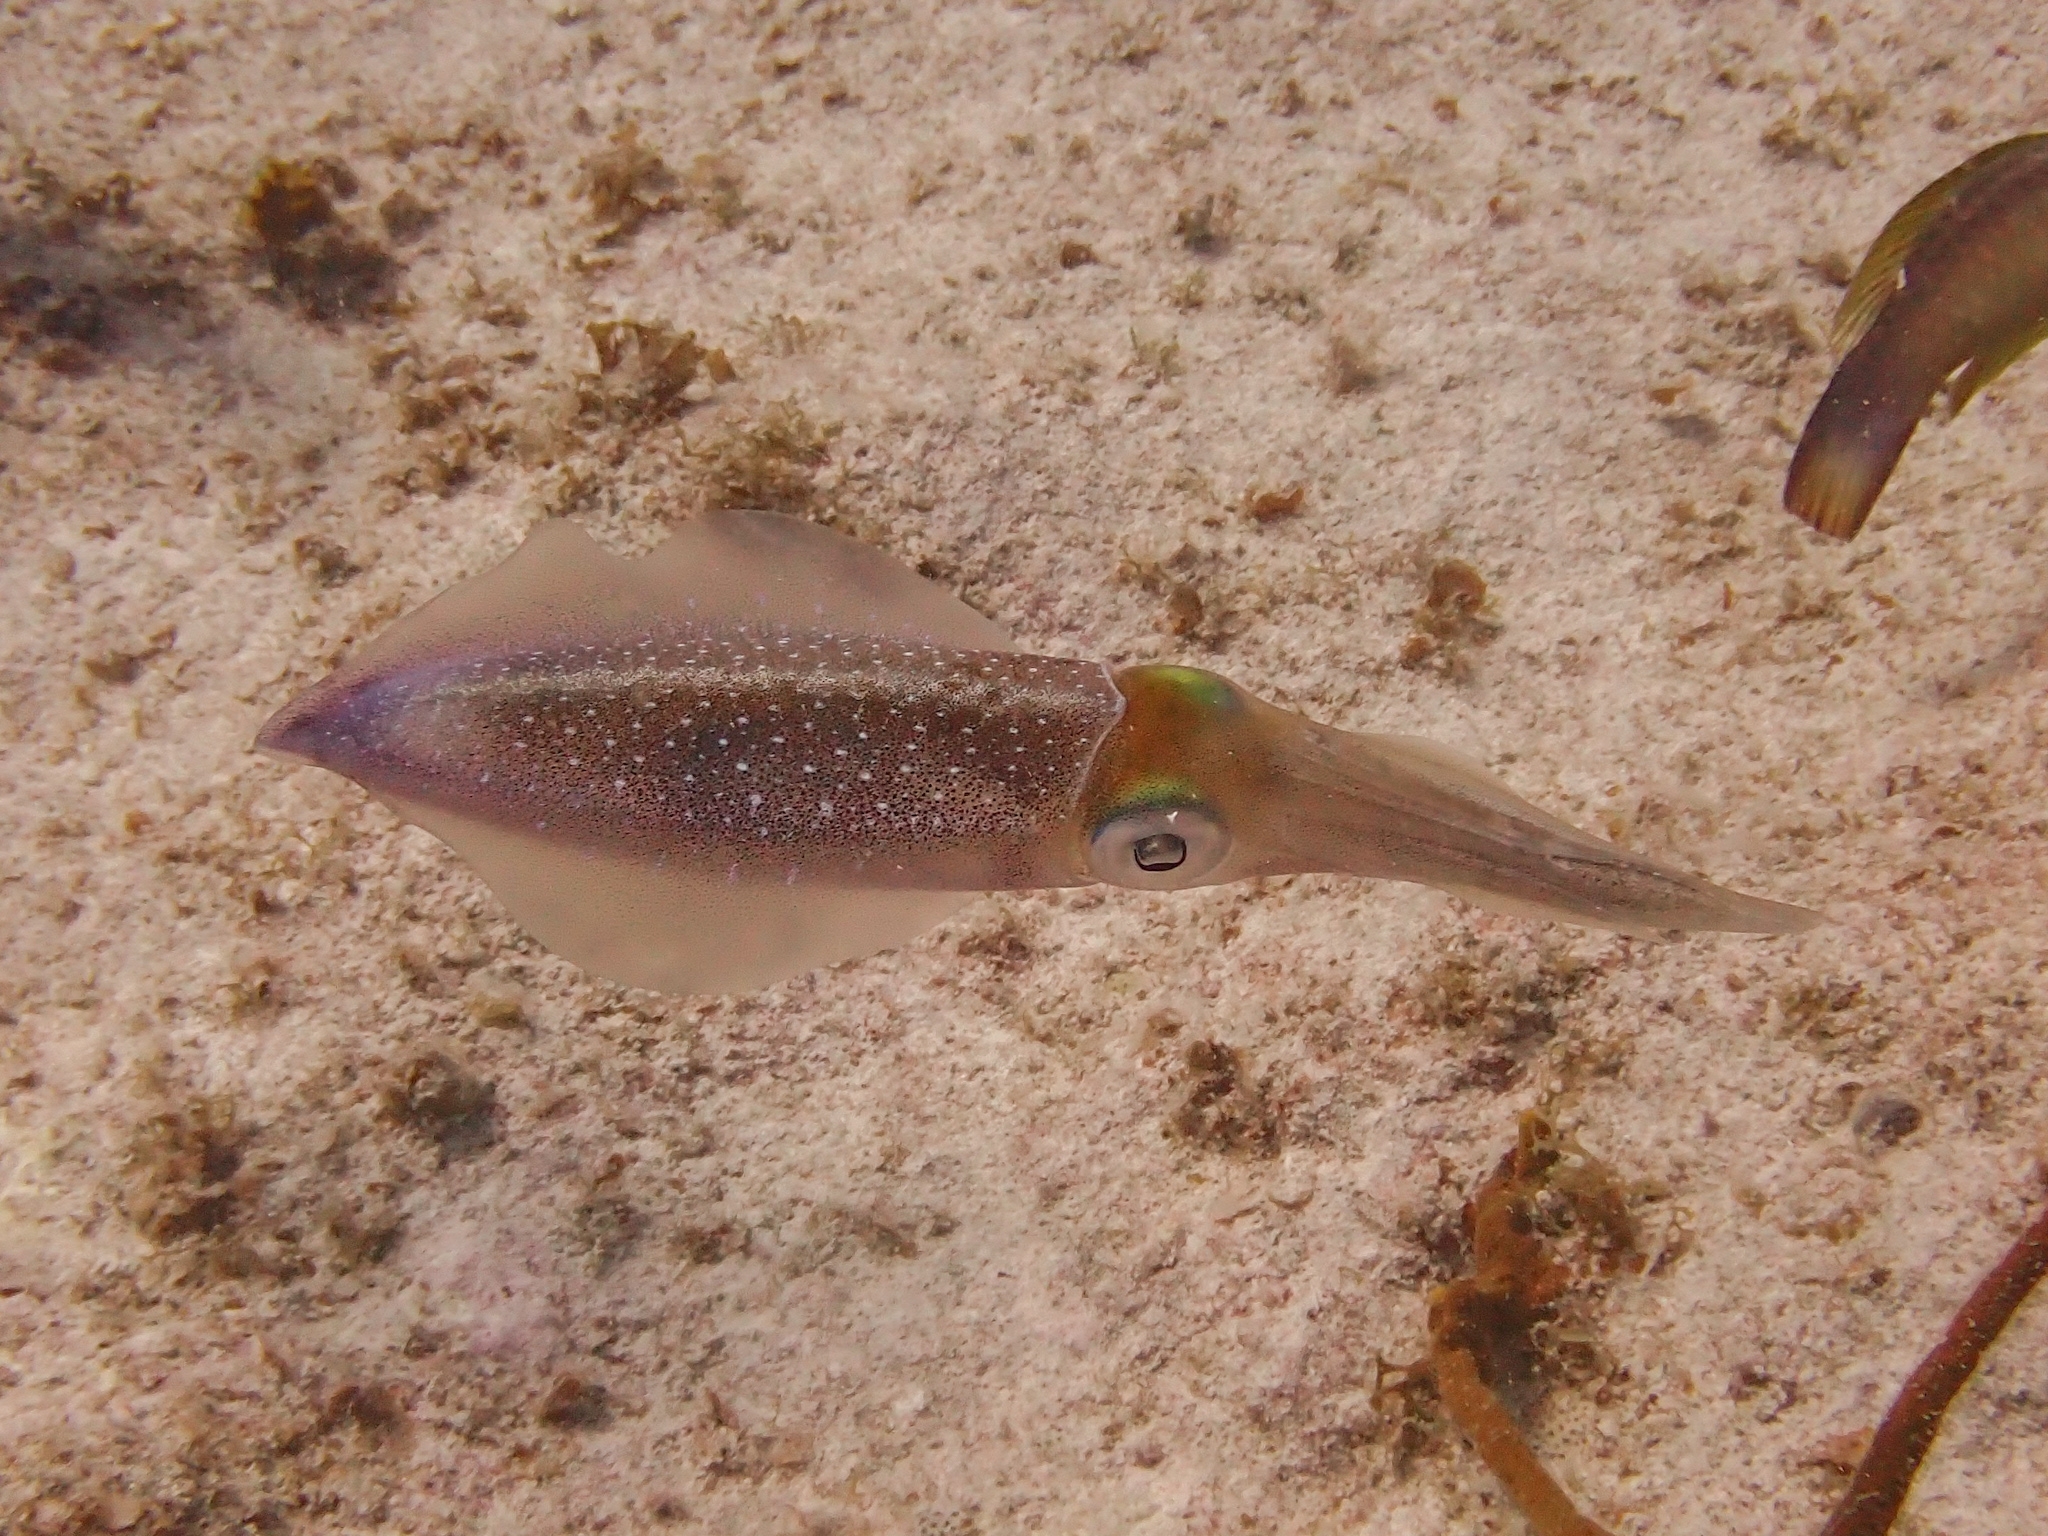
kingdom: Animalia
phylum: Mollusca
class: Cephalopoda
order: Myopsida
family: Loliginidae
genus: Sepioteuthis
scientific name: Sepioteuthis sepioidea
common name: Caribbean reef squid
